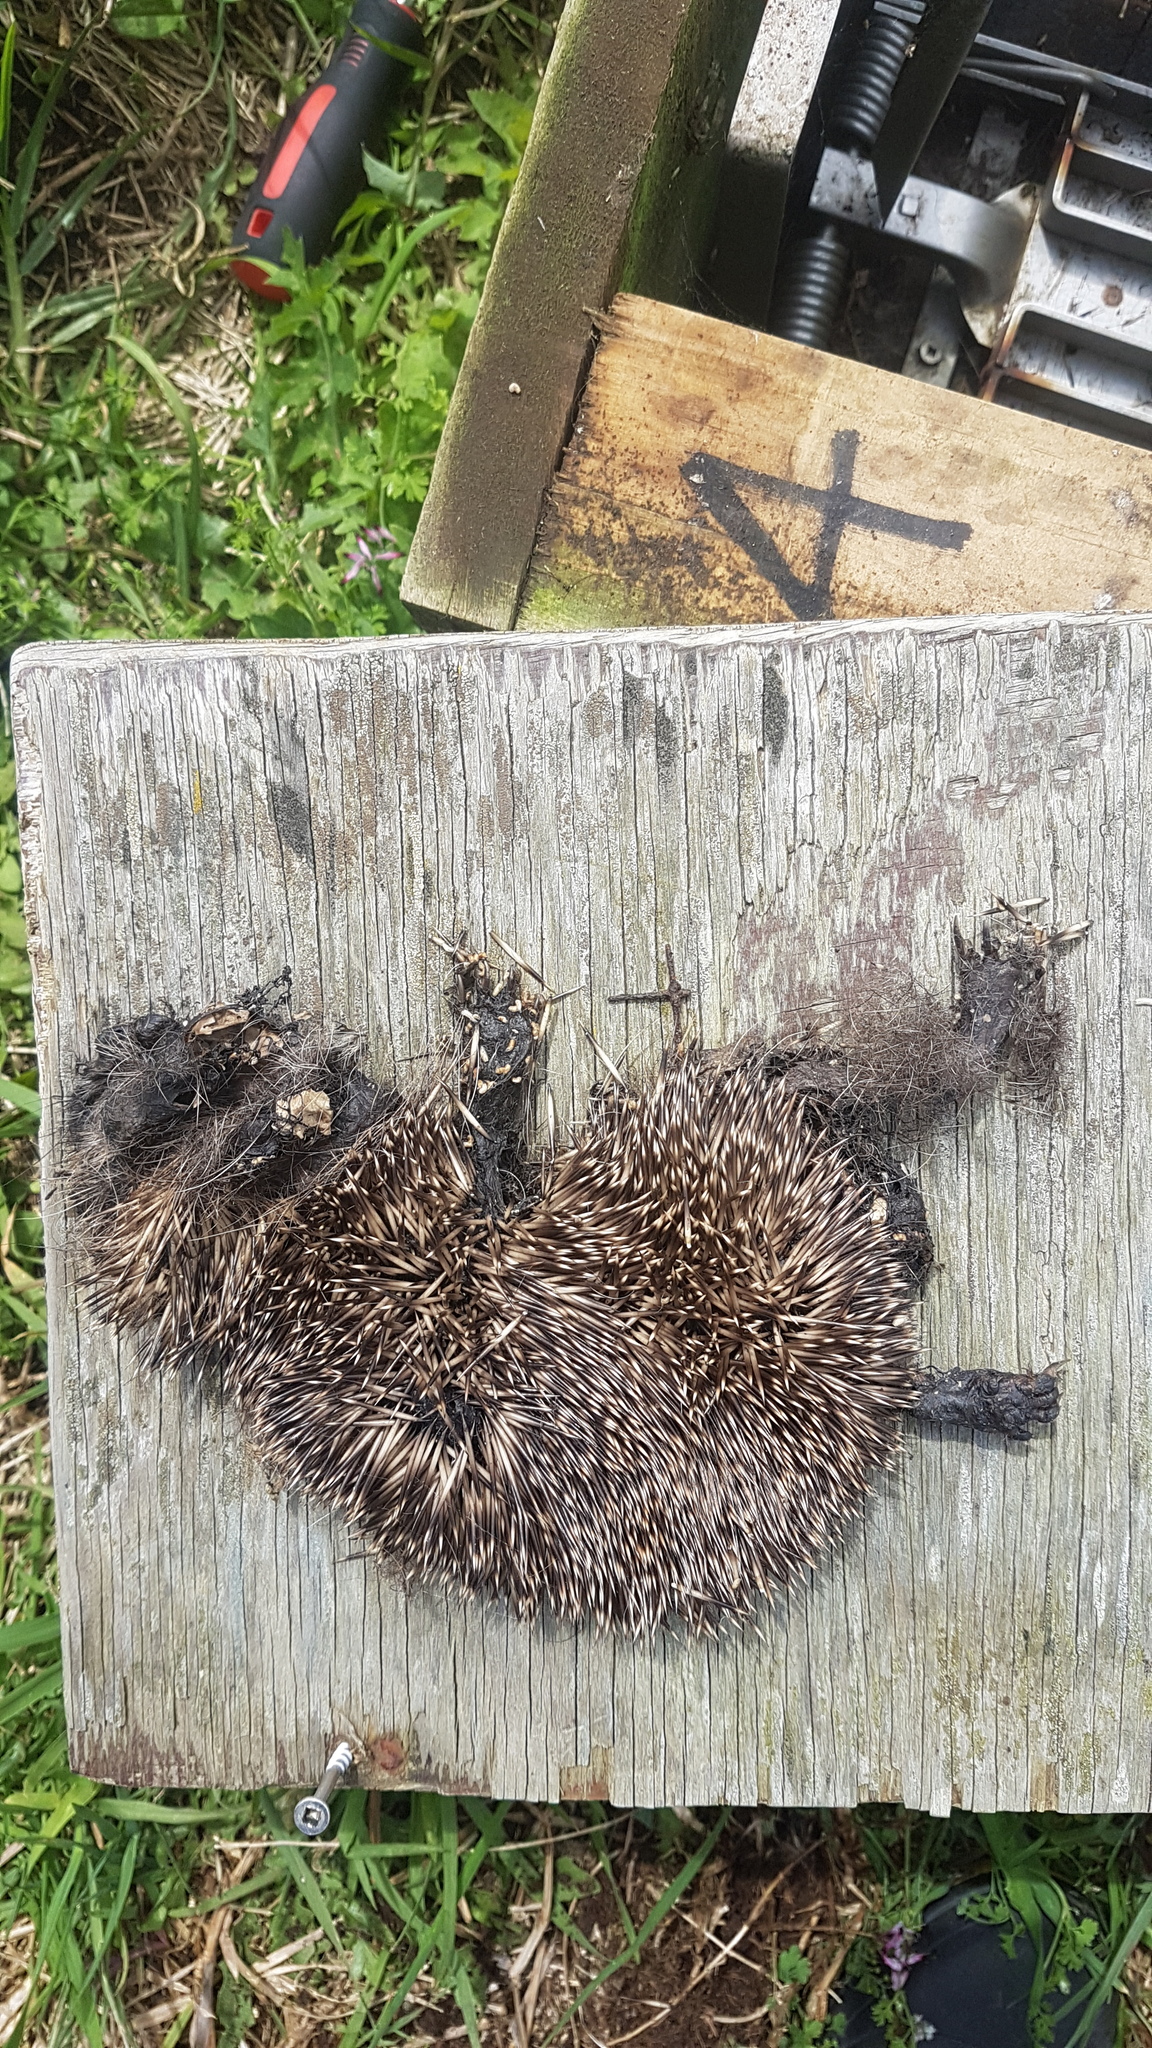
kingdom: Animalia
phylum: Chordata
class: Mammalia
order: Erinaceomorpha
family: Erinaceidae
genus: Erinaceus
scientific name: Erinaceus europaeus
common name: West european hedgehog
